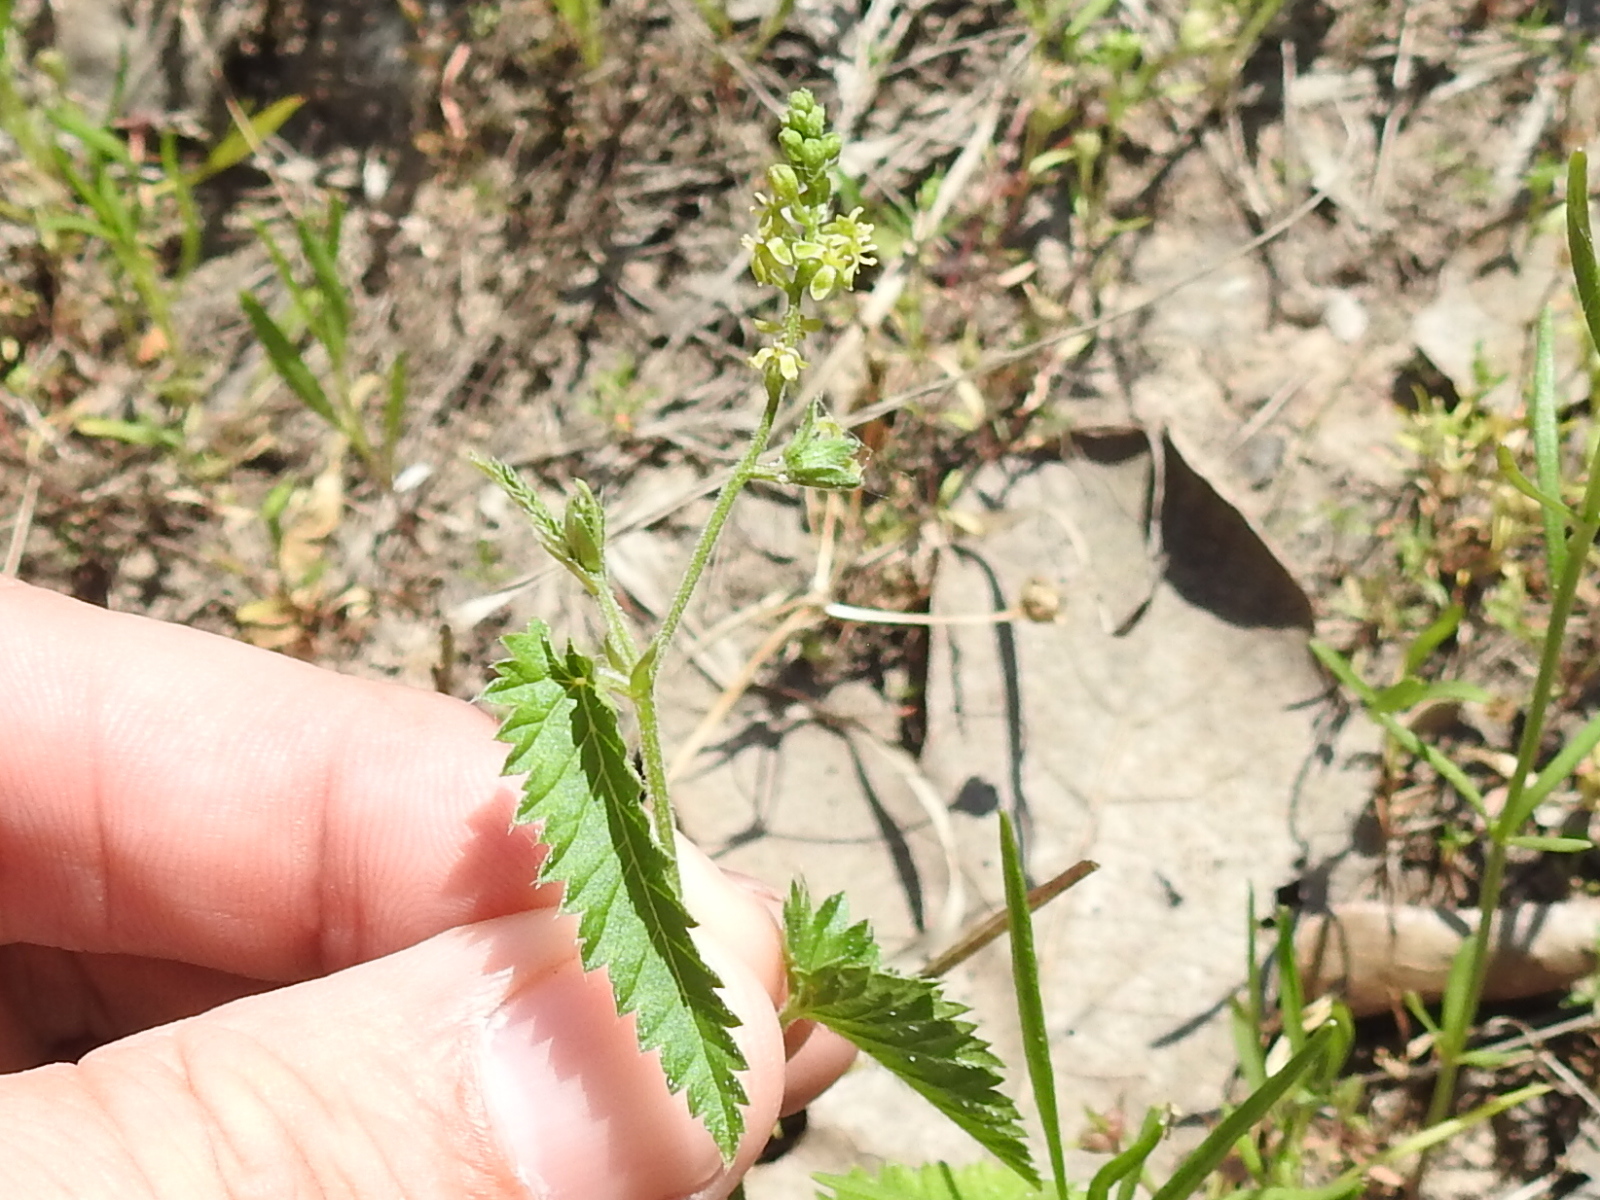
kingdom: Plantae
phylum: Tracheophyta
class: Magnoliopsida
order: Malpighiales
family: Euphorbiaceae
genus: Tragia
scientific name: Tragia ramosa
